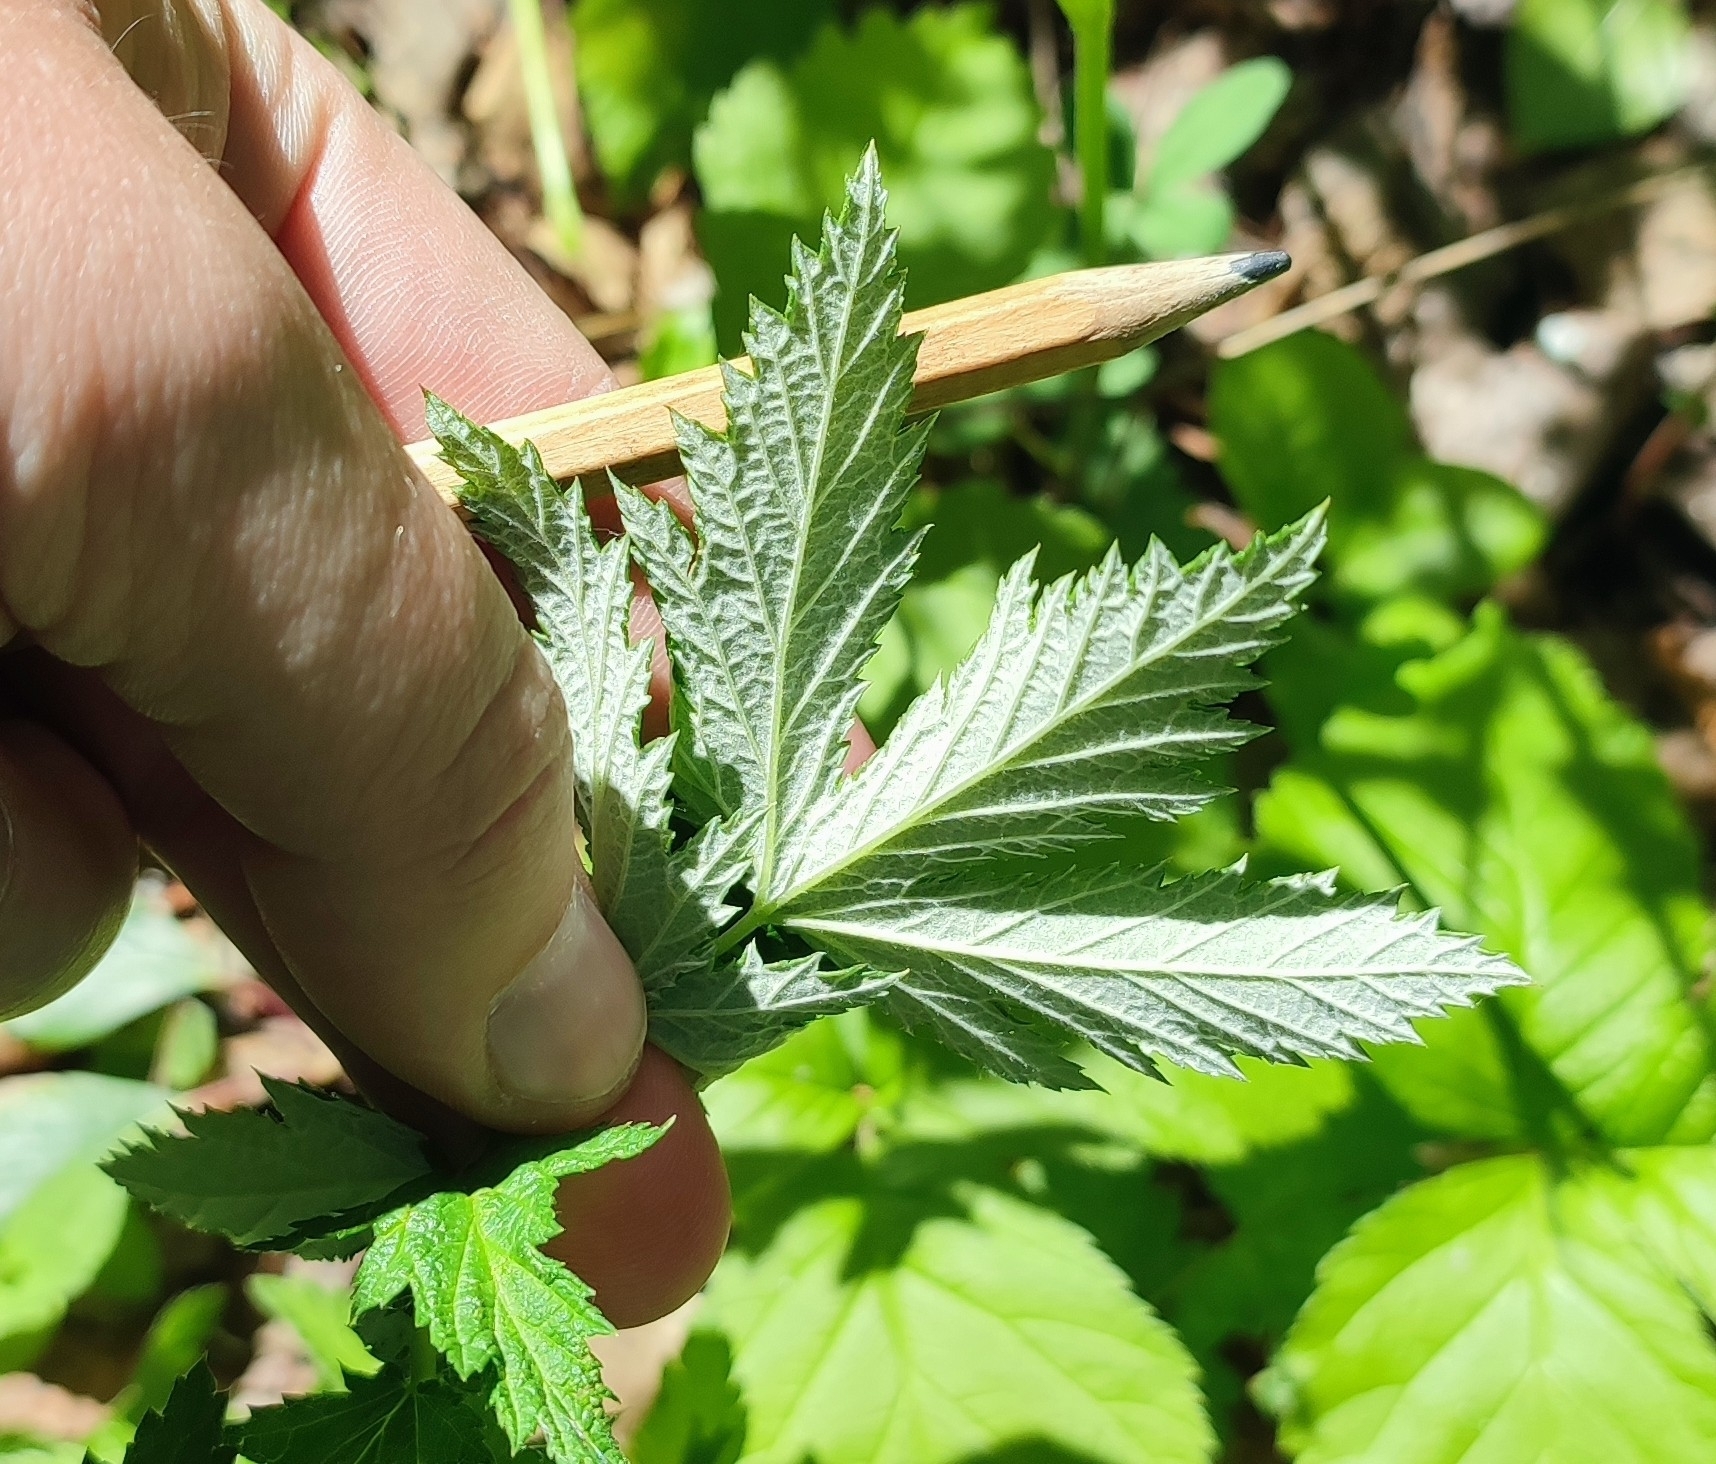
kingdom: Plantae
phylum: Tracheophyta
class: Magnoliopsida
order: Rosales
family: Rosaceae
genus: Filipendula
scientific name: Filipendula ulmaria
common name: Meadowsweet
